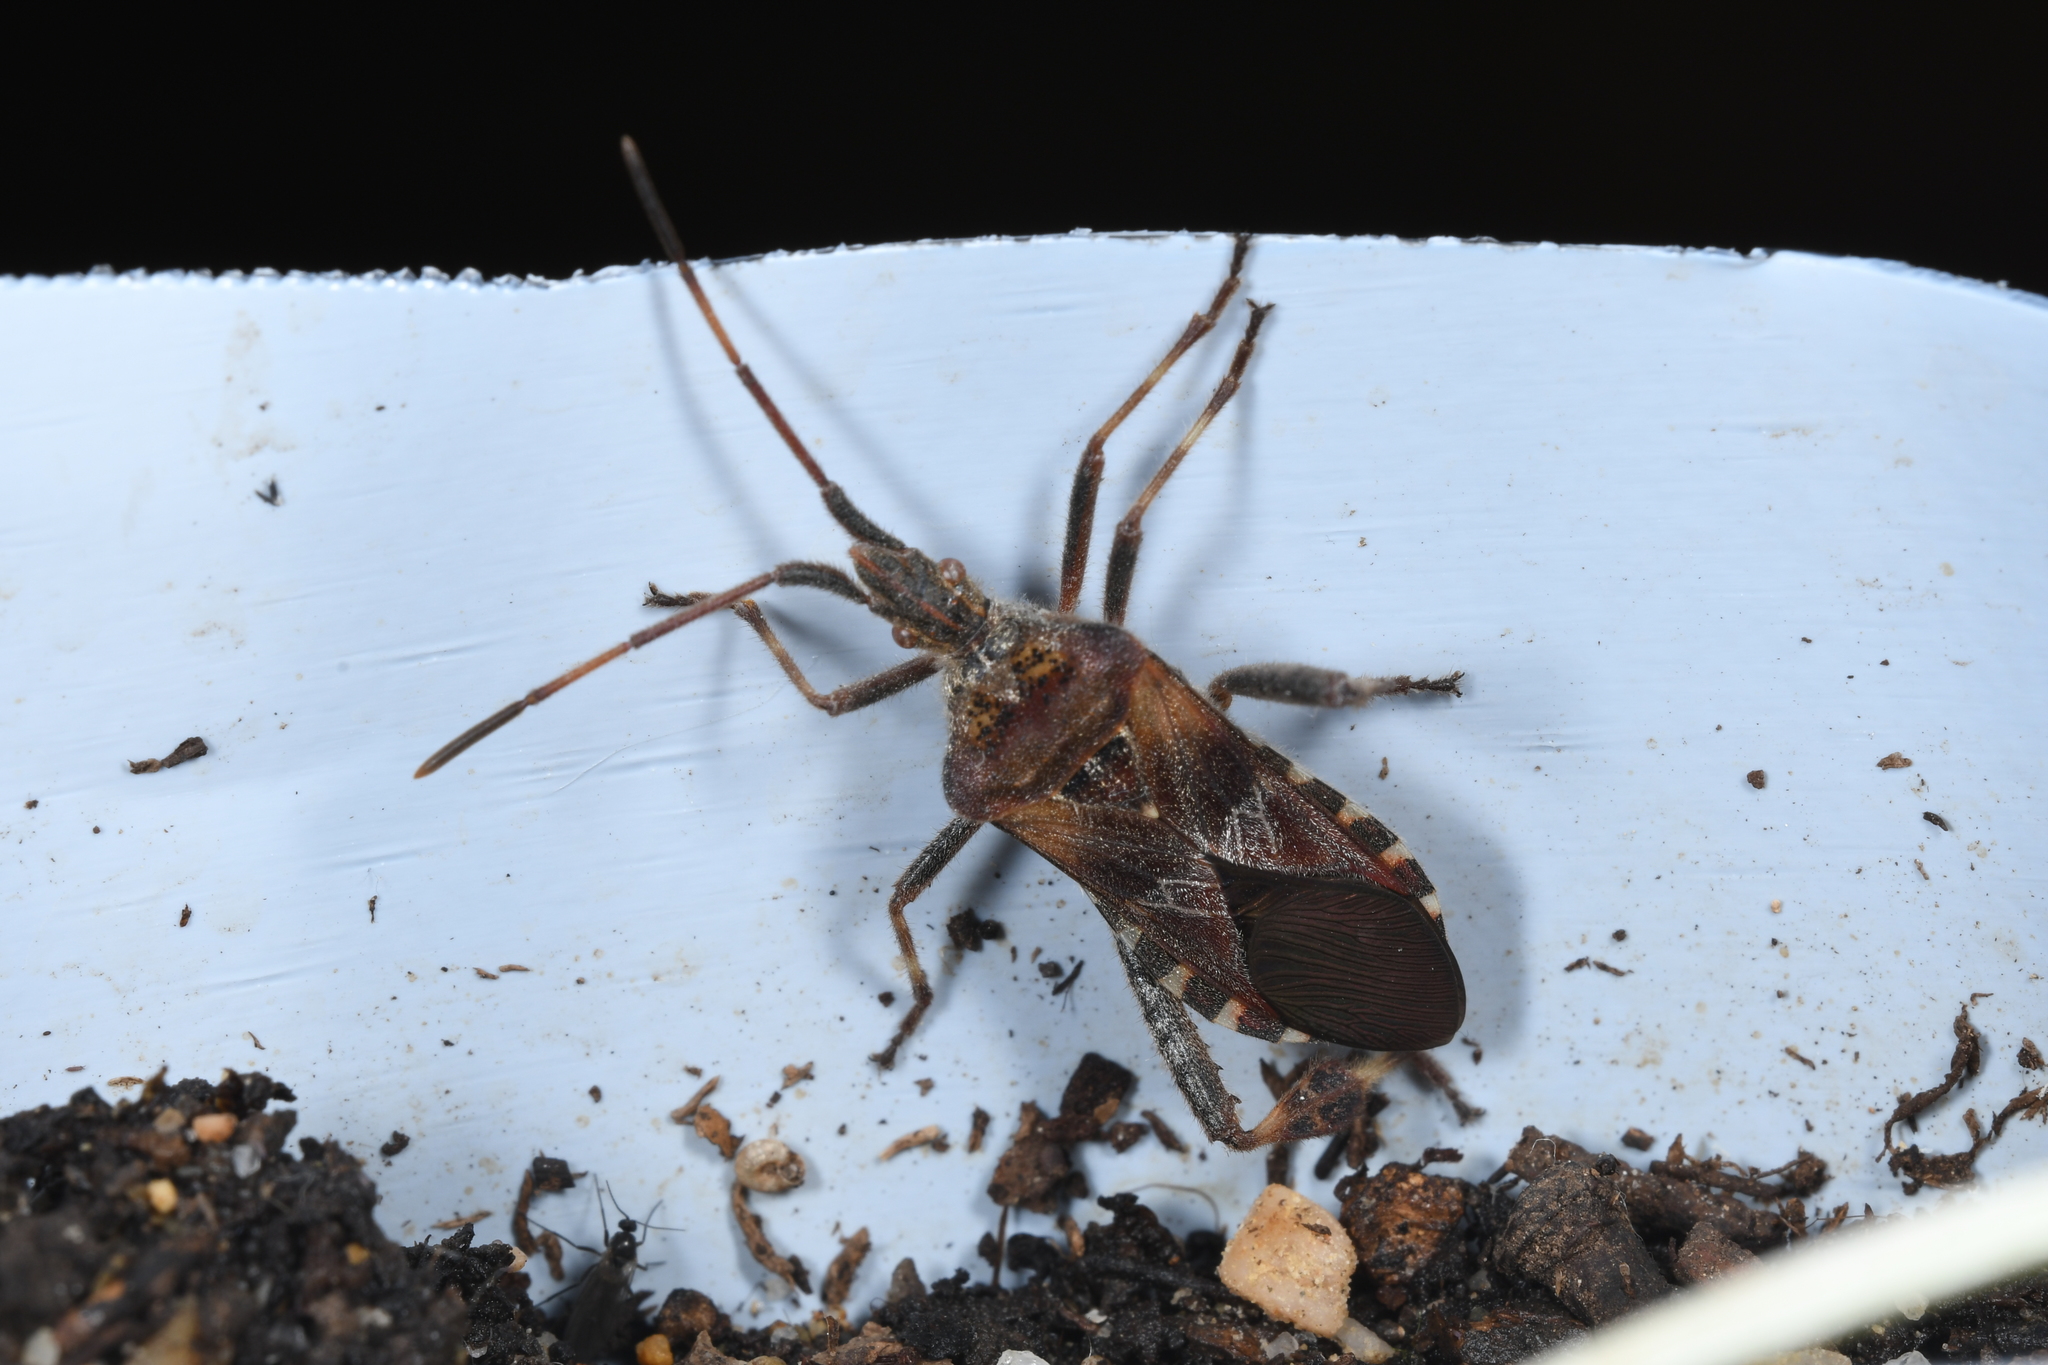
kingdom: Animalia
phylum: Arthropoda
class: Insecta
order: Hemiptera
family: Coreidae
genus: Leptoglossus
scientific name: Leptoglossus occidentalis
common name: Western conifer-seed bug
